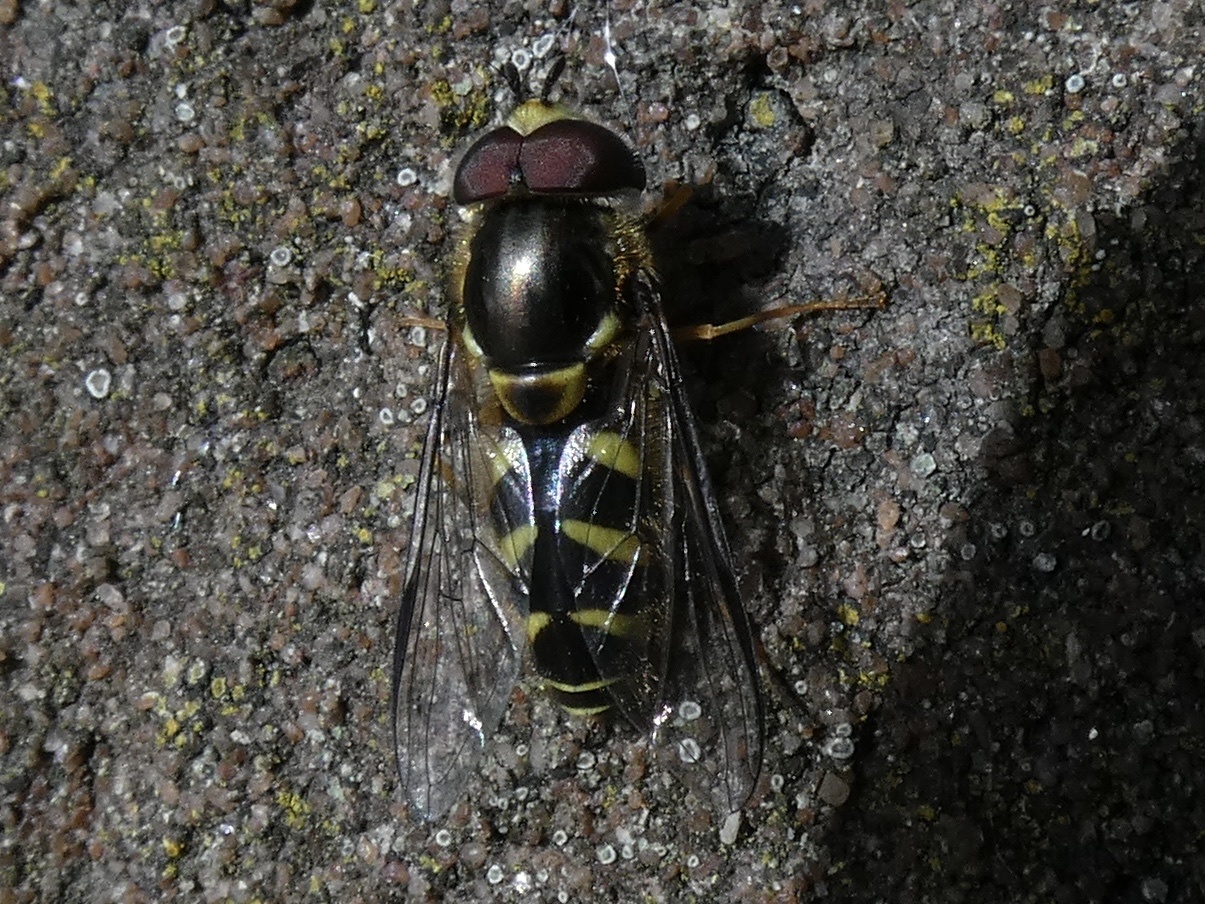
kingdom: Animalia
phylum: Arthropoda
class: Insecta
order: Diptera
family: Syrphidae
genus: Dasysyrphus
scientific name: Dasysyrphus albostriatus
